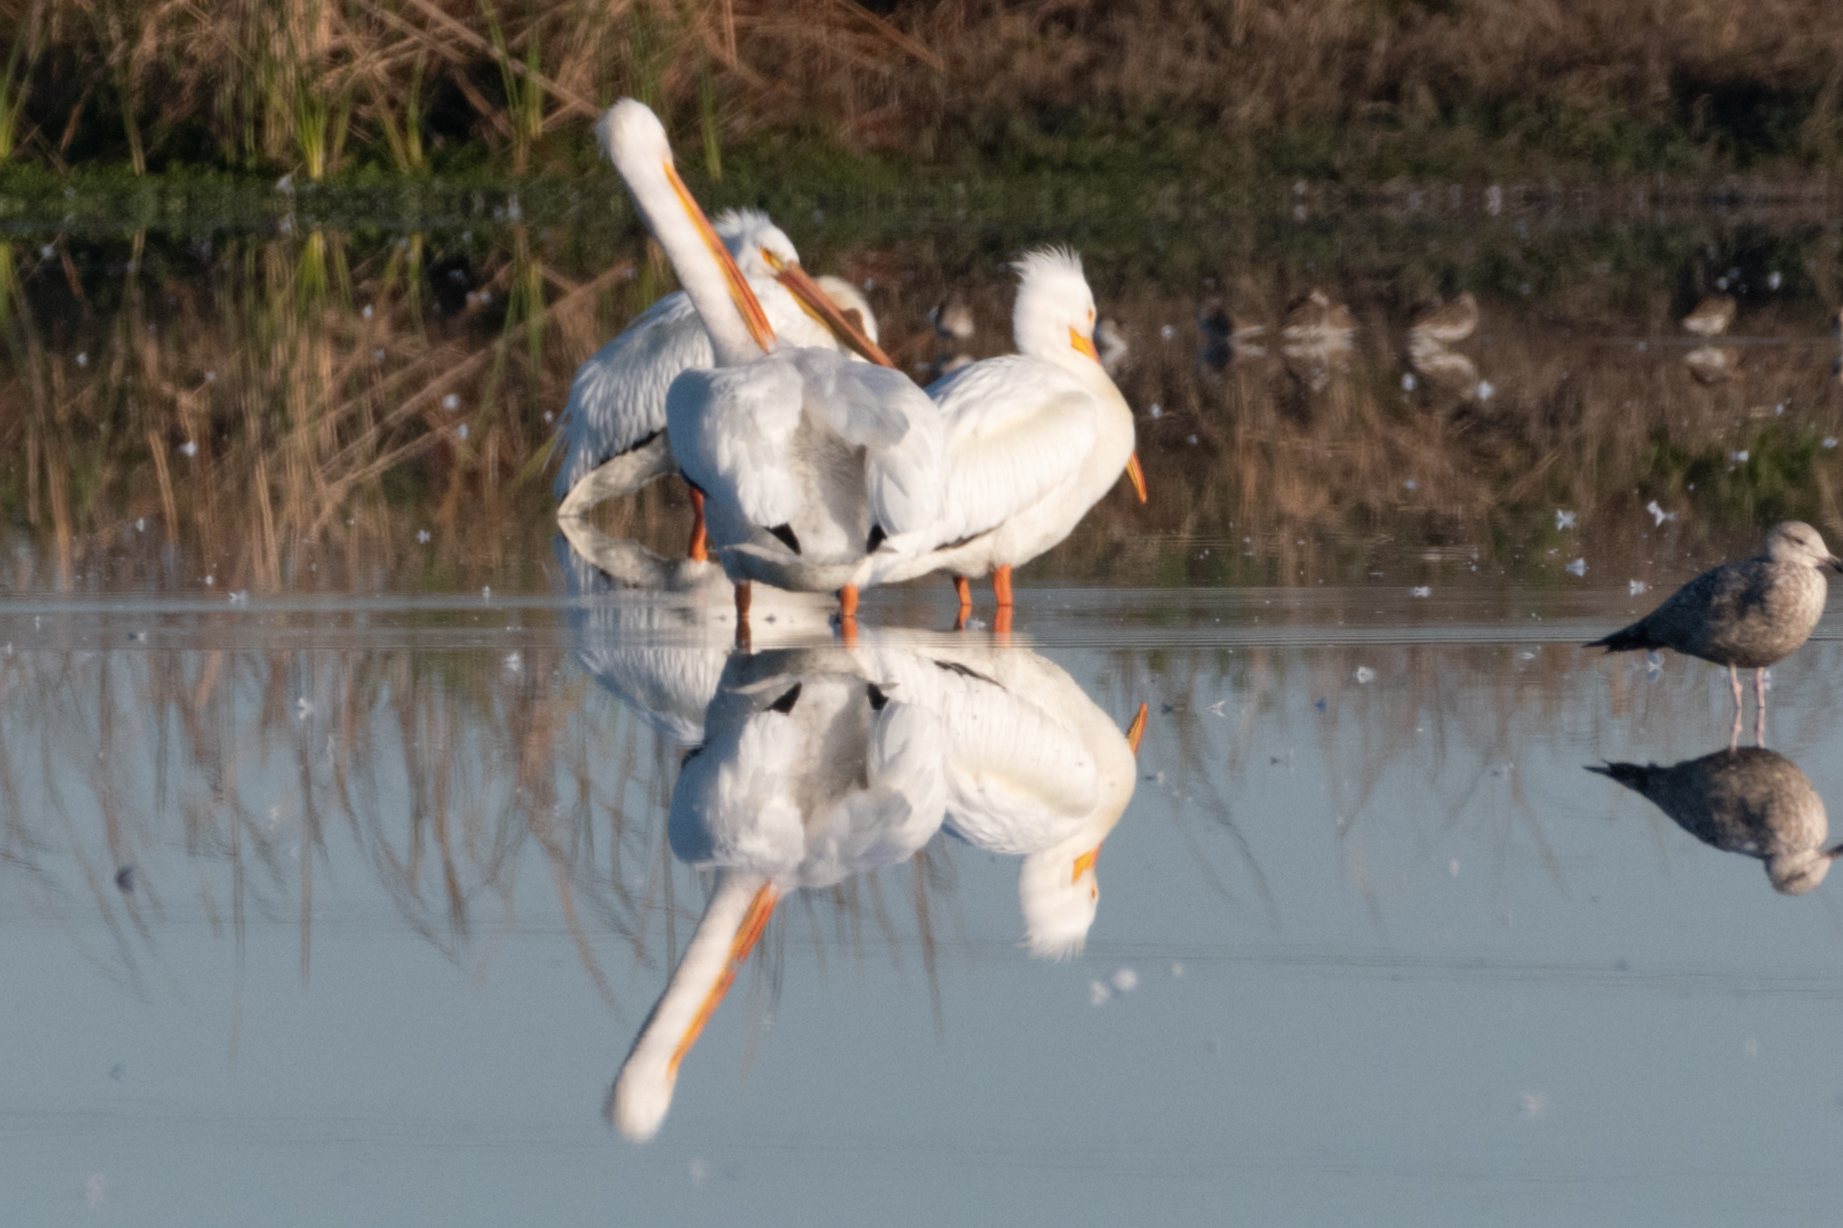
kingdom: Animalia
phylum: Chordata
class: Aves
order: Pelecaniformes
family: Pelecanidae
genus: Pelecanus
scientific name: Pelecanus erythrorhynchos
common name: American white pelican
